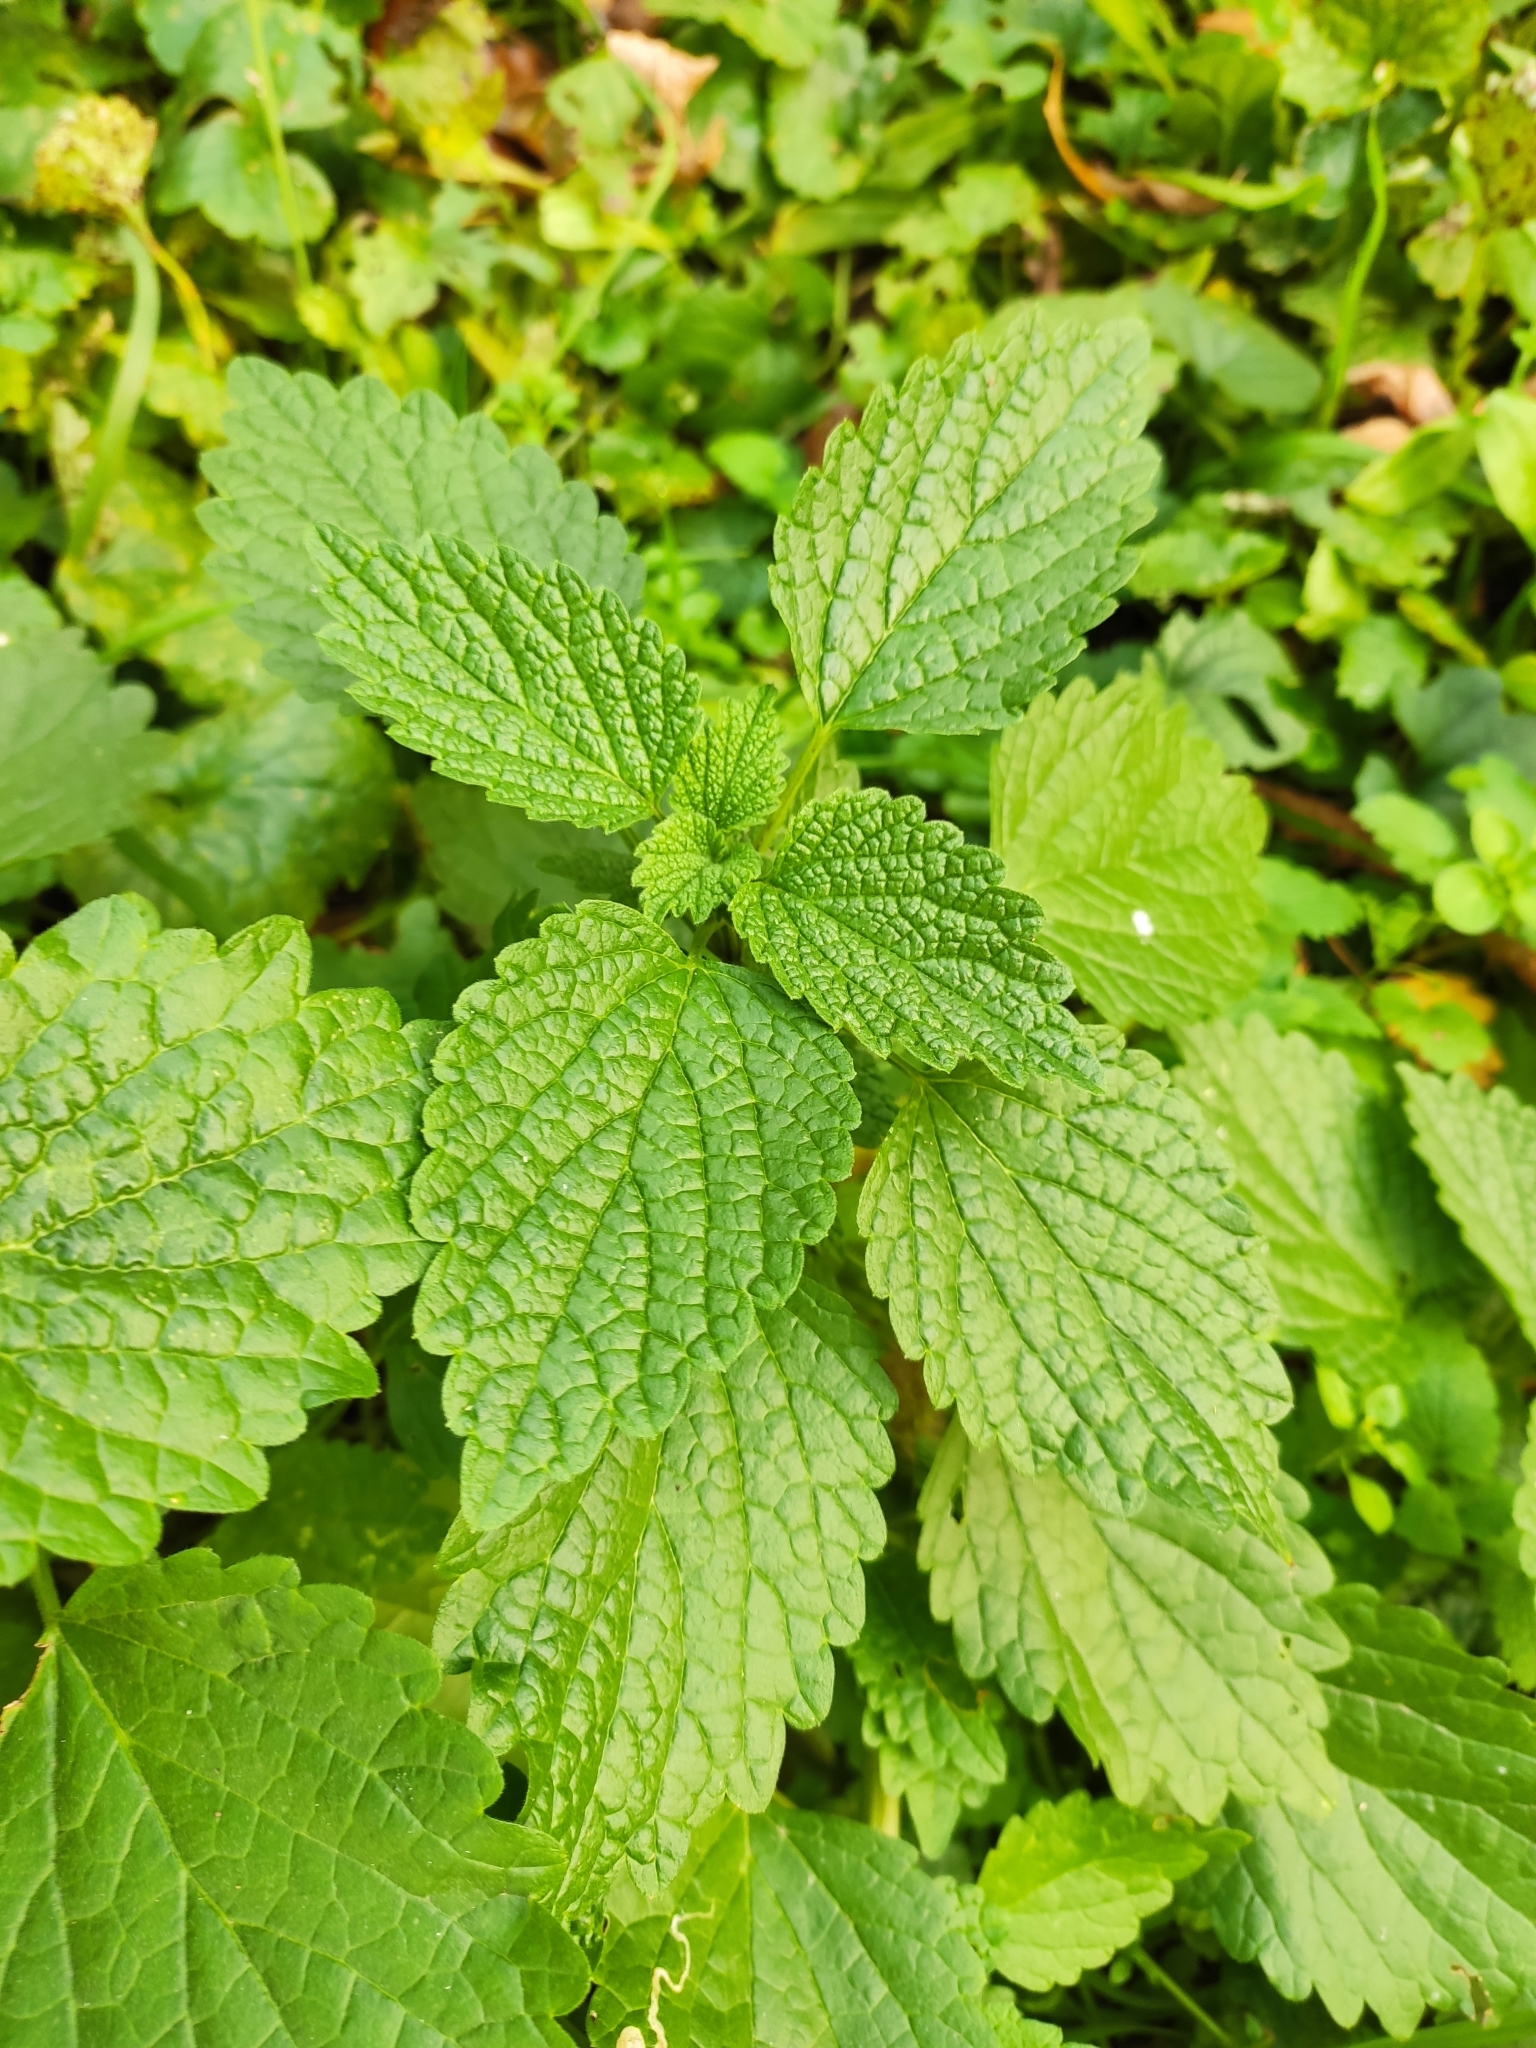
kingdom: Plantae
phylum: Tracheophyta
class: Magnoliopsida
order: Lamiales
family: Lamiaceae
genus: Melissa
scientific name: Melissa officinalis
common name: Balm
